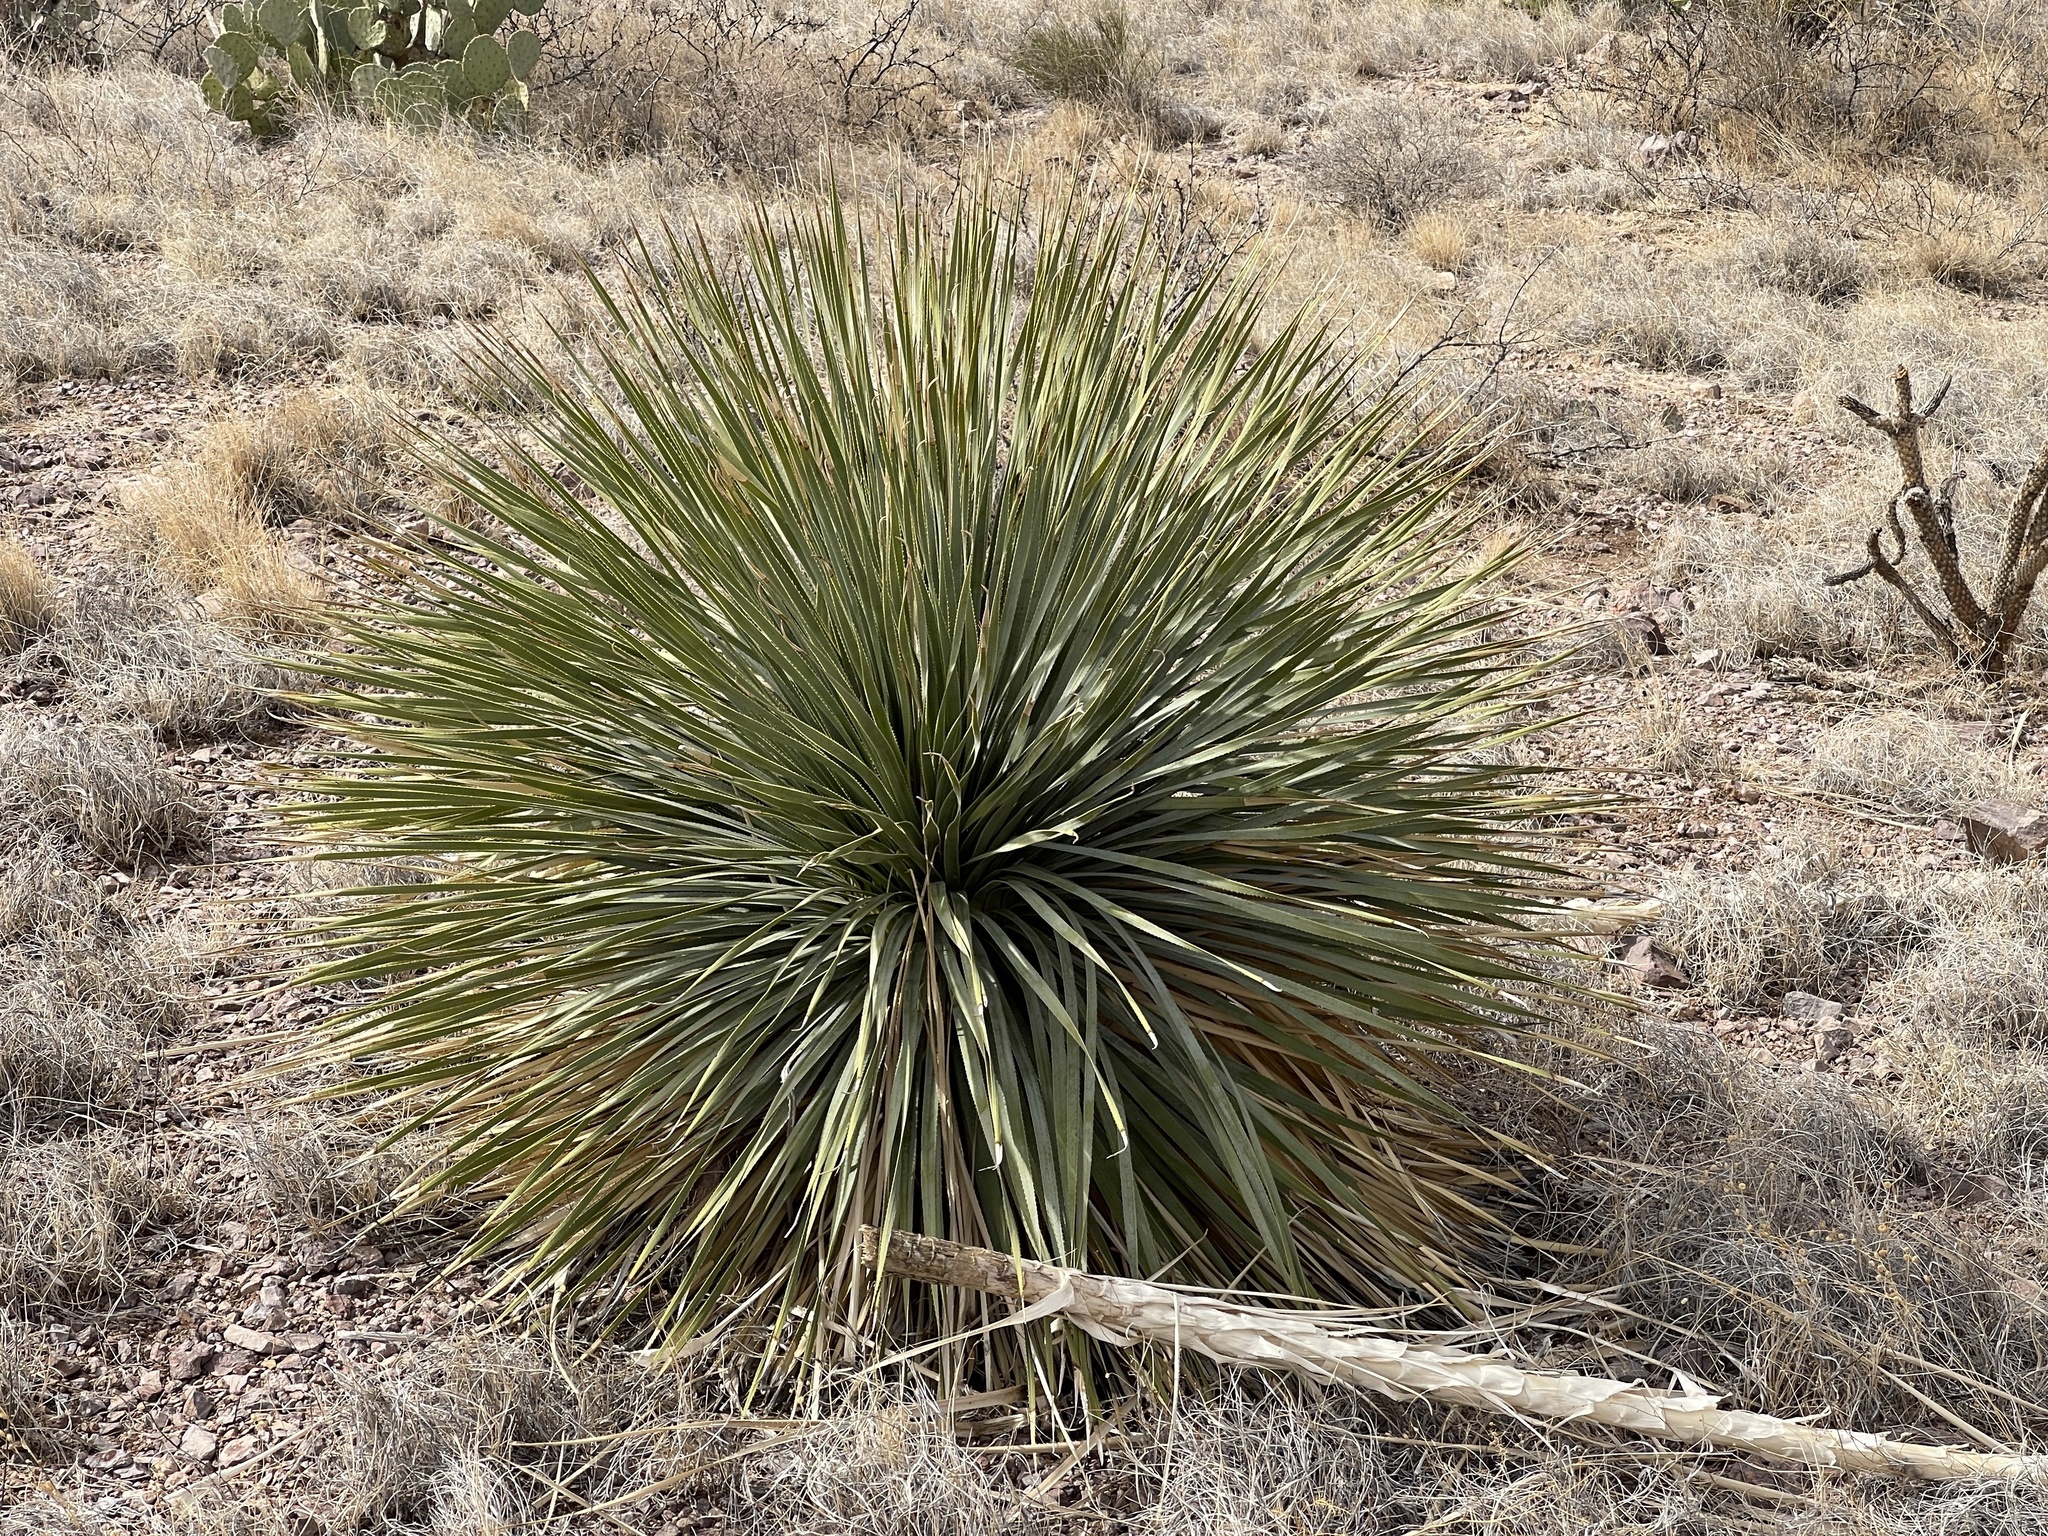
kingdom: Plantae
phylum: Tracheophyta
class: Liliopsida
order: Asparagales
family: Asparagaceae
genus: Dasylirion
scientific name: Dasylirion wheeleri
